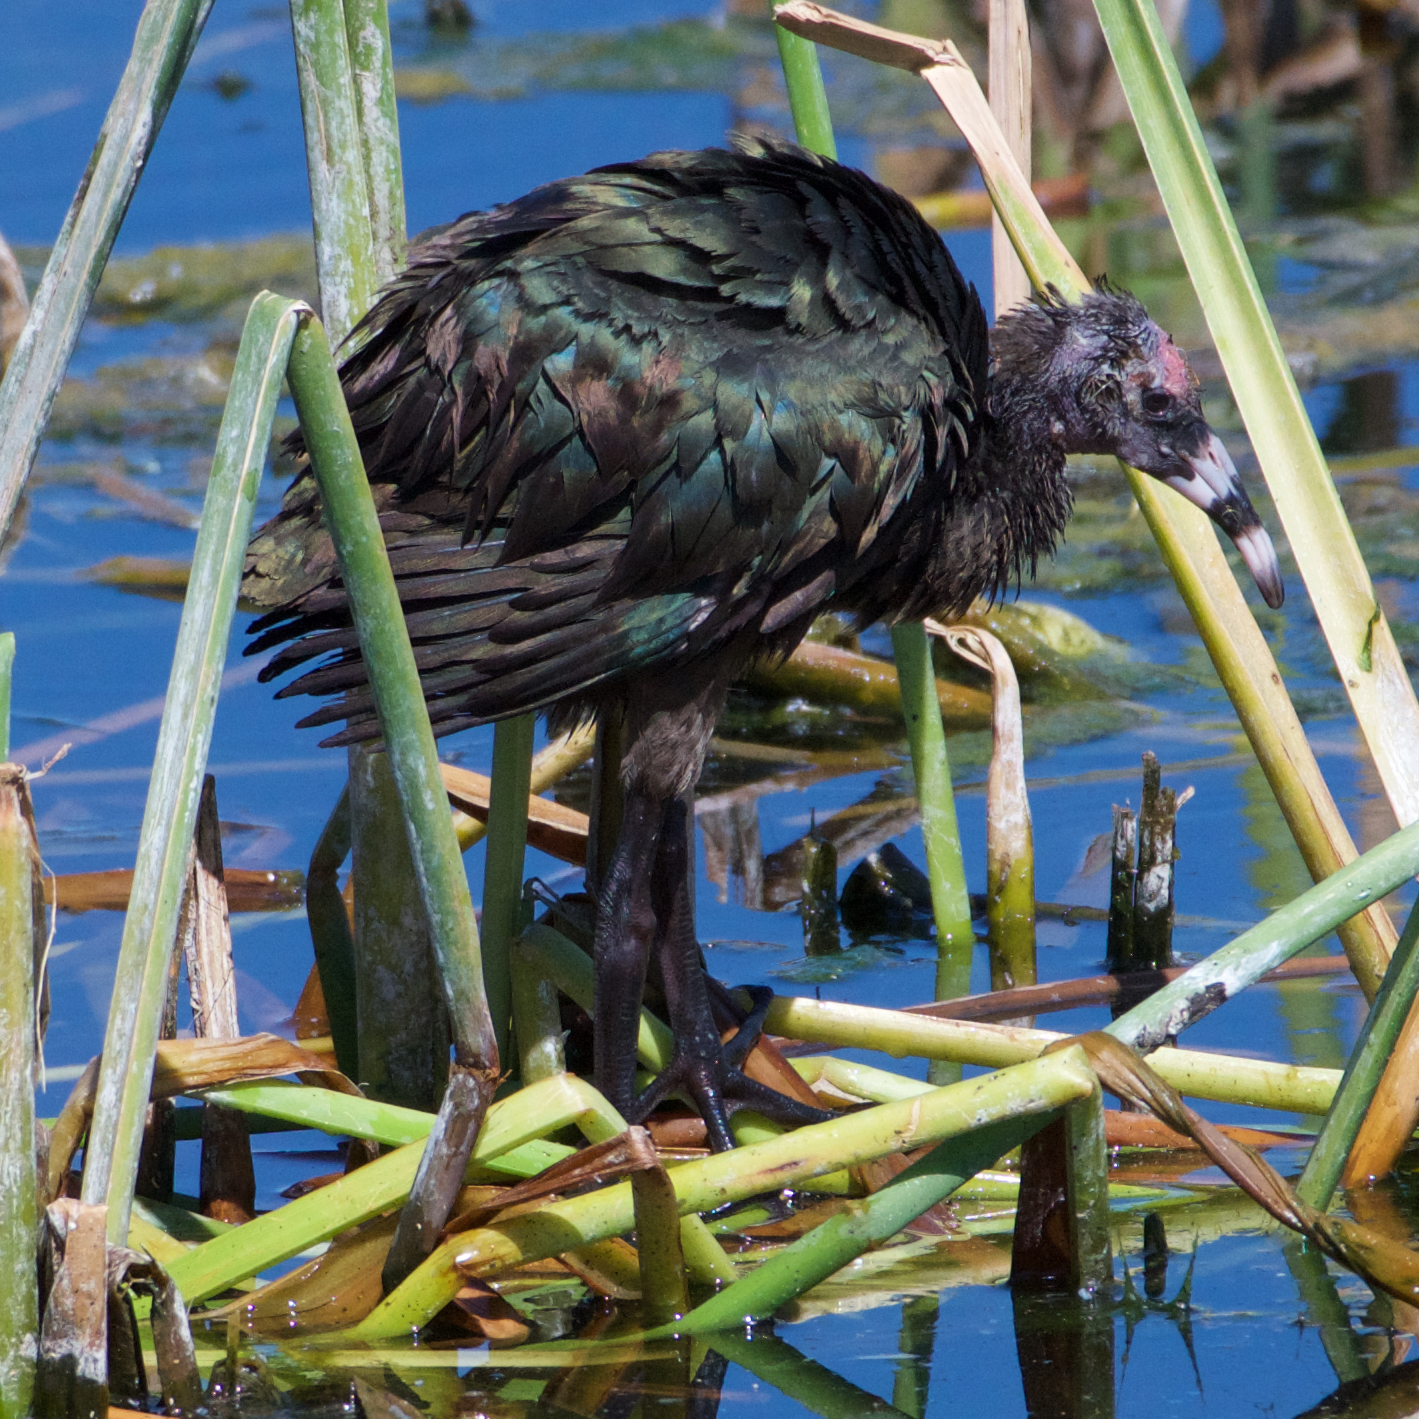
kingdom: Animalia
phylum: Chordata
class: Aves
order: Pelecaniformes
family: Threskiornithidae
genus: Plegadis
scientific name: Plegadis chihi
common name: White-faced ibis
